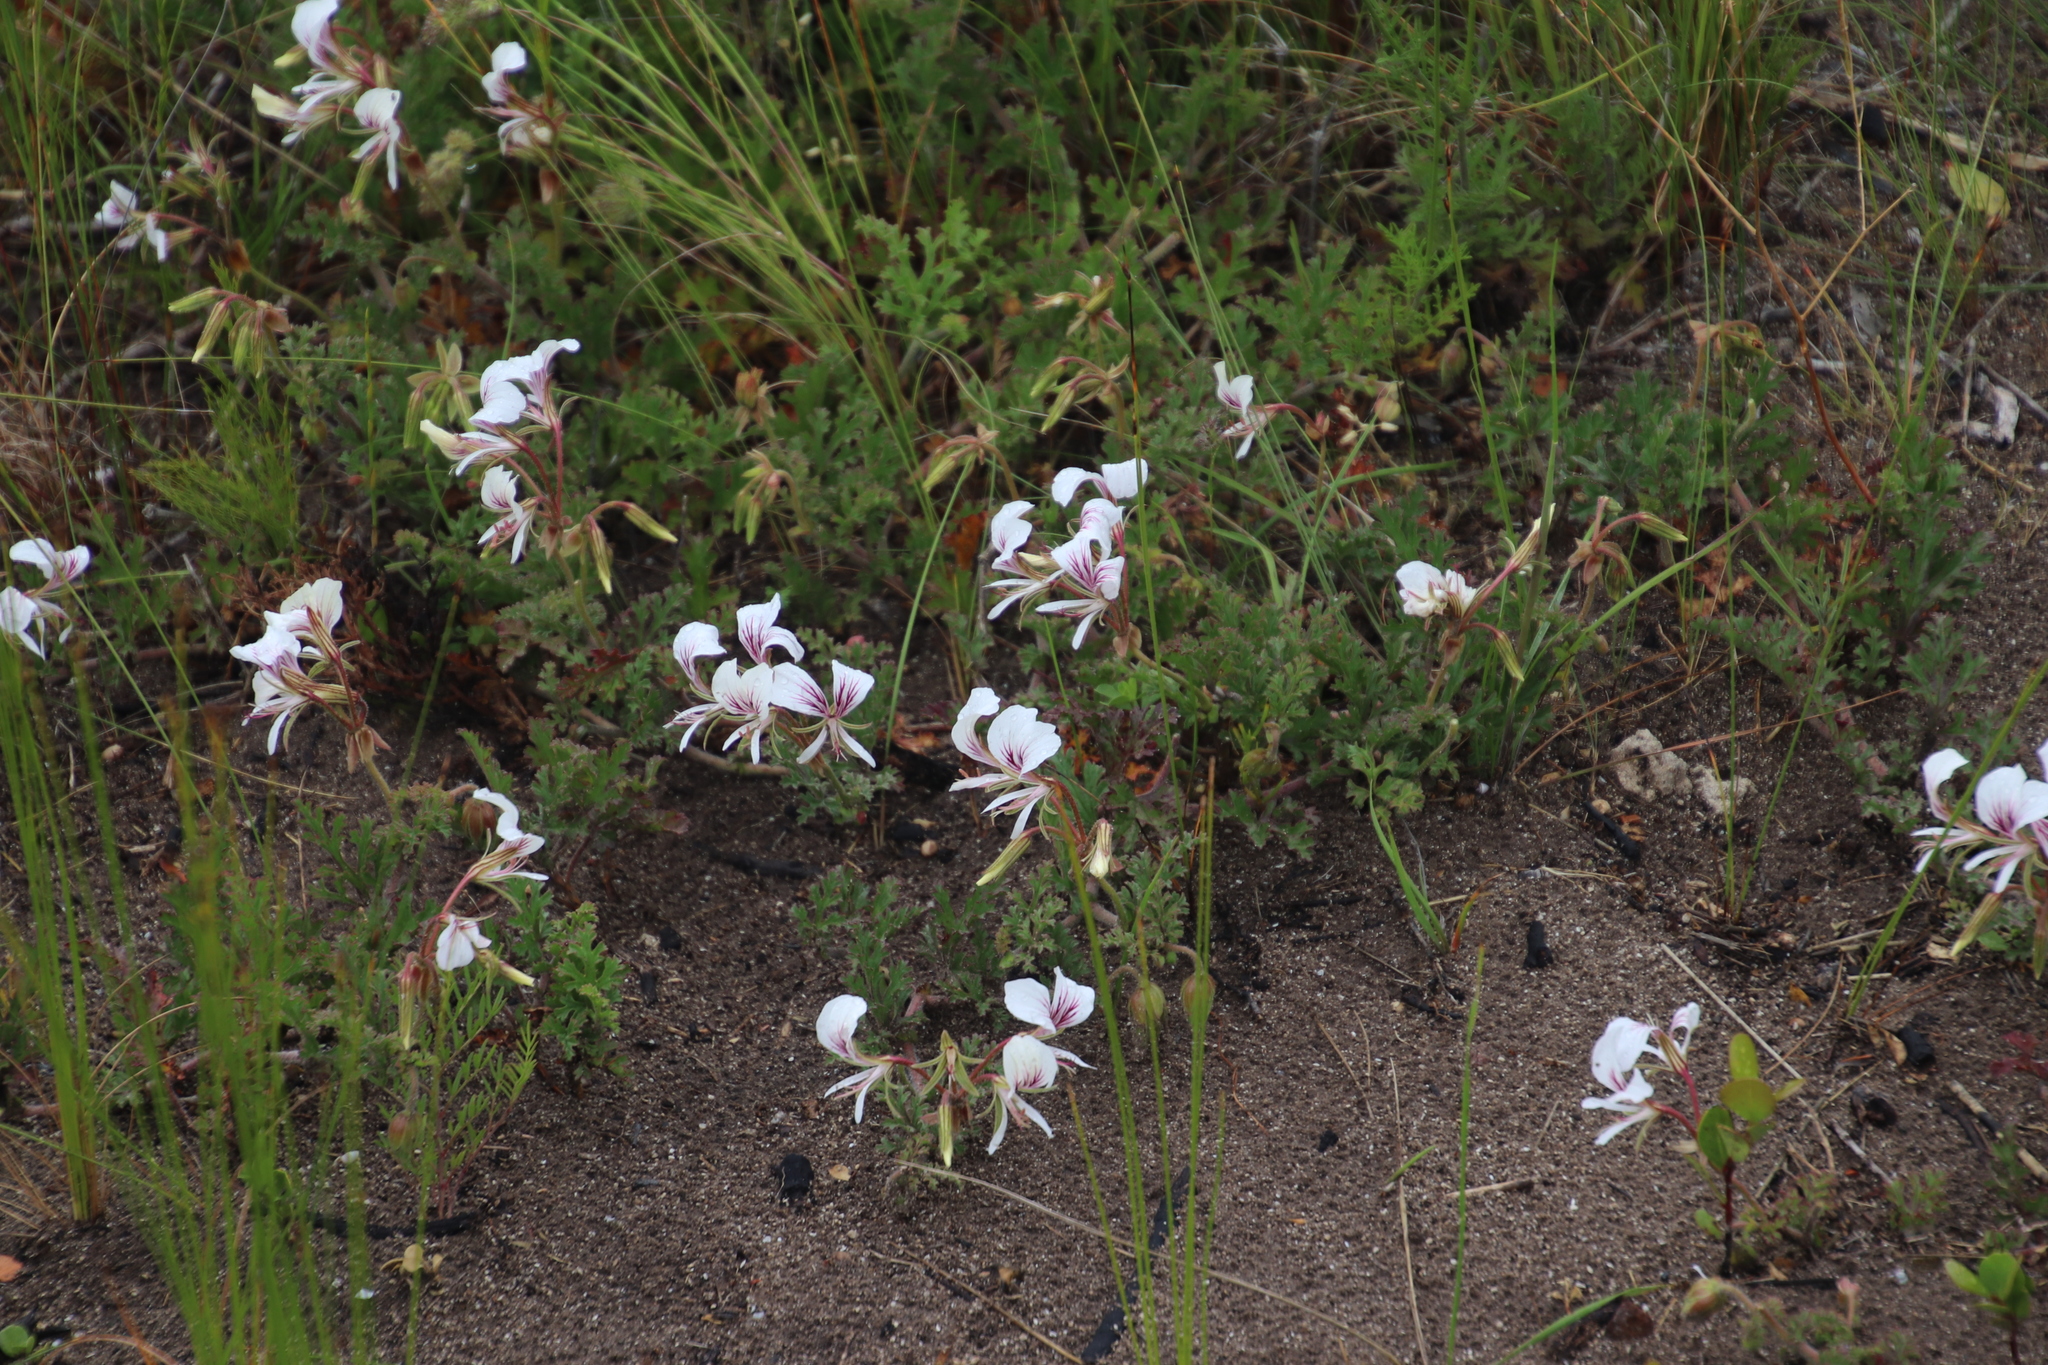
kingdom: Plantae
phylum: Tracheophyta
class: Magnoliopsida
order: Geraniales
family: Geraniaceae
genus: Pelargonium
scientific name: Pelargonium suburbanum
